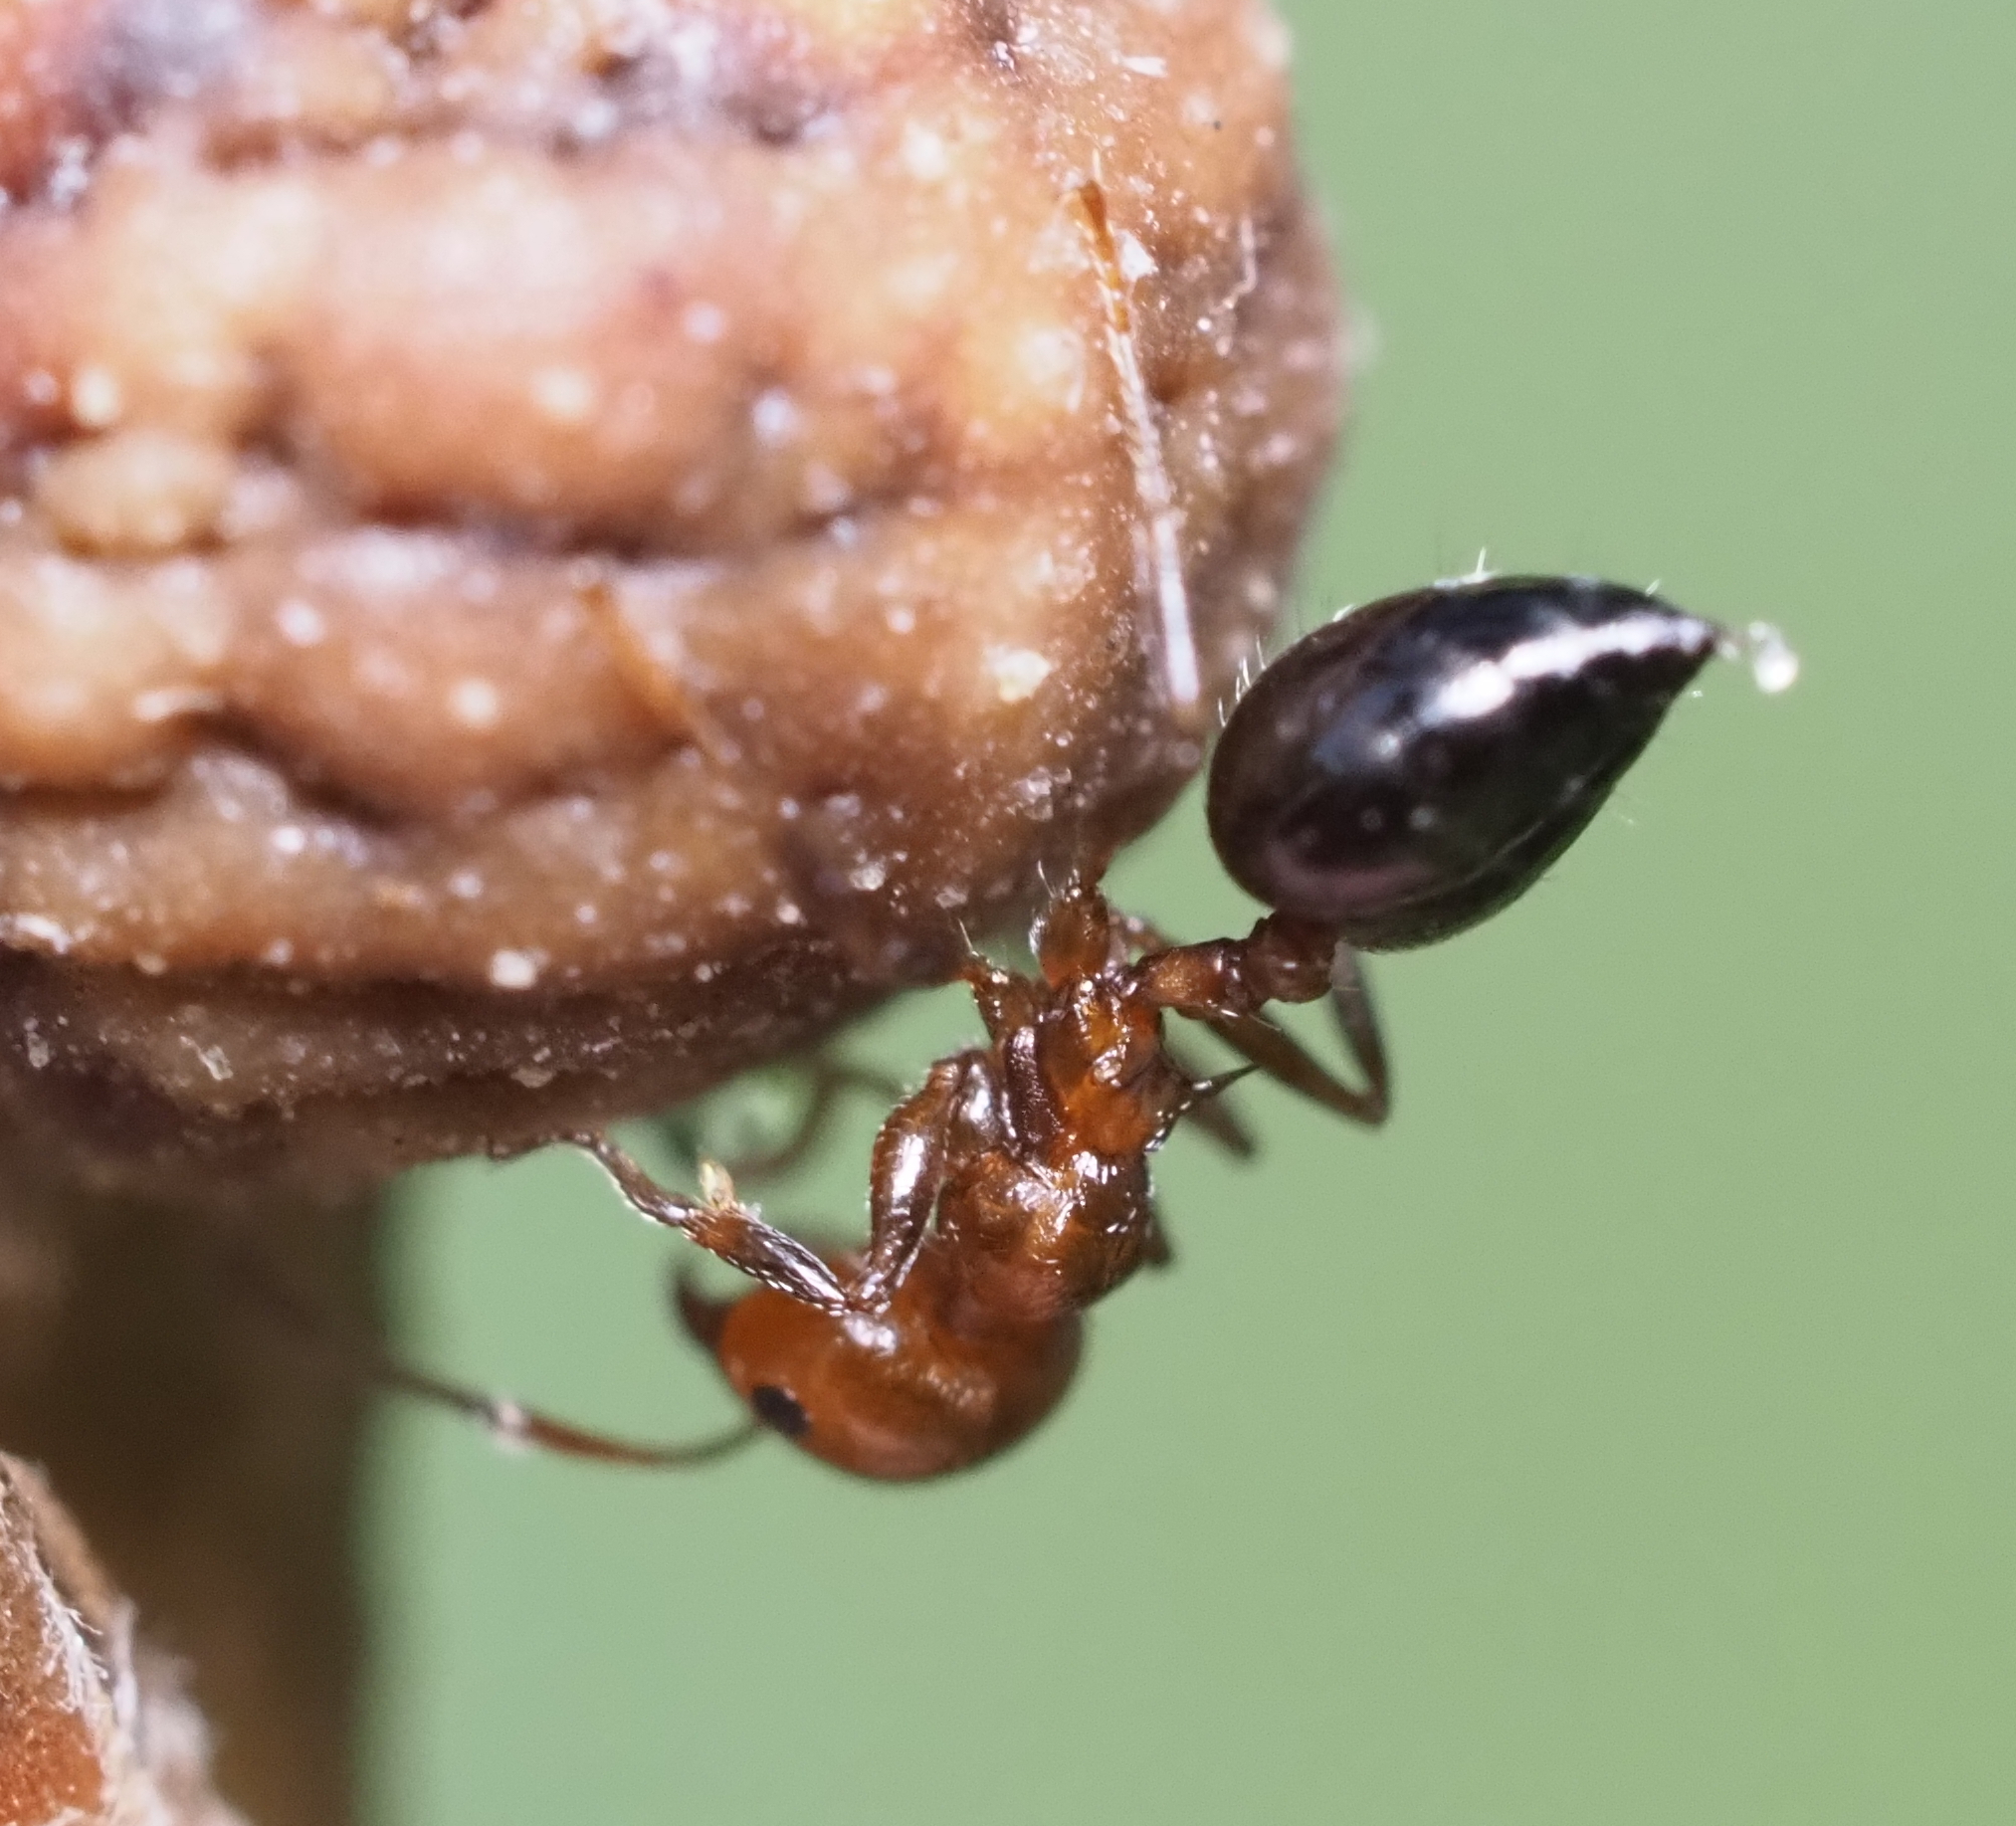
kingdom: Animalia
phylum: Arthropoda
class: Insecta
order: Hymenoptera
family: Formicidae
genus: Crematogaster
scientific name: Crematogaster laeviuscula
